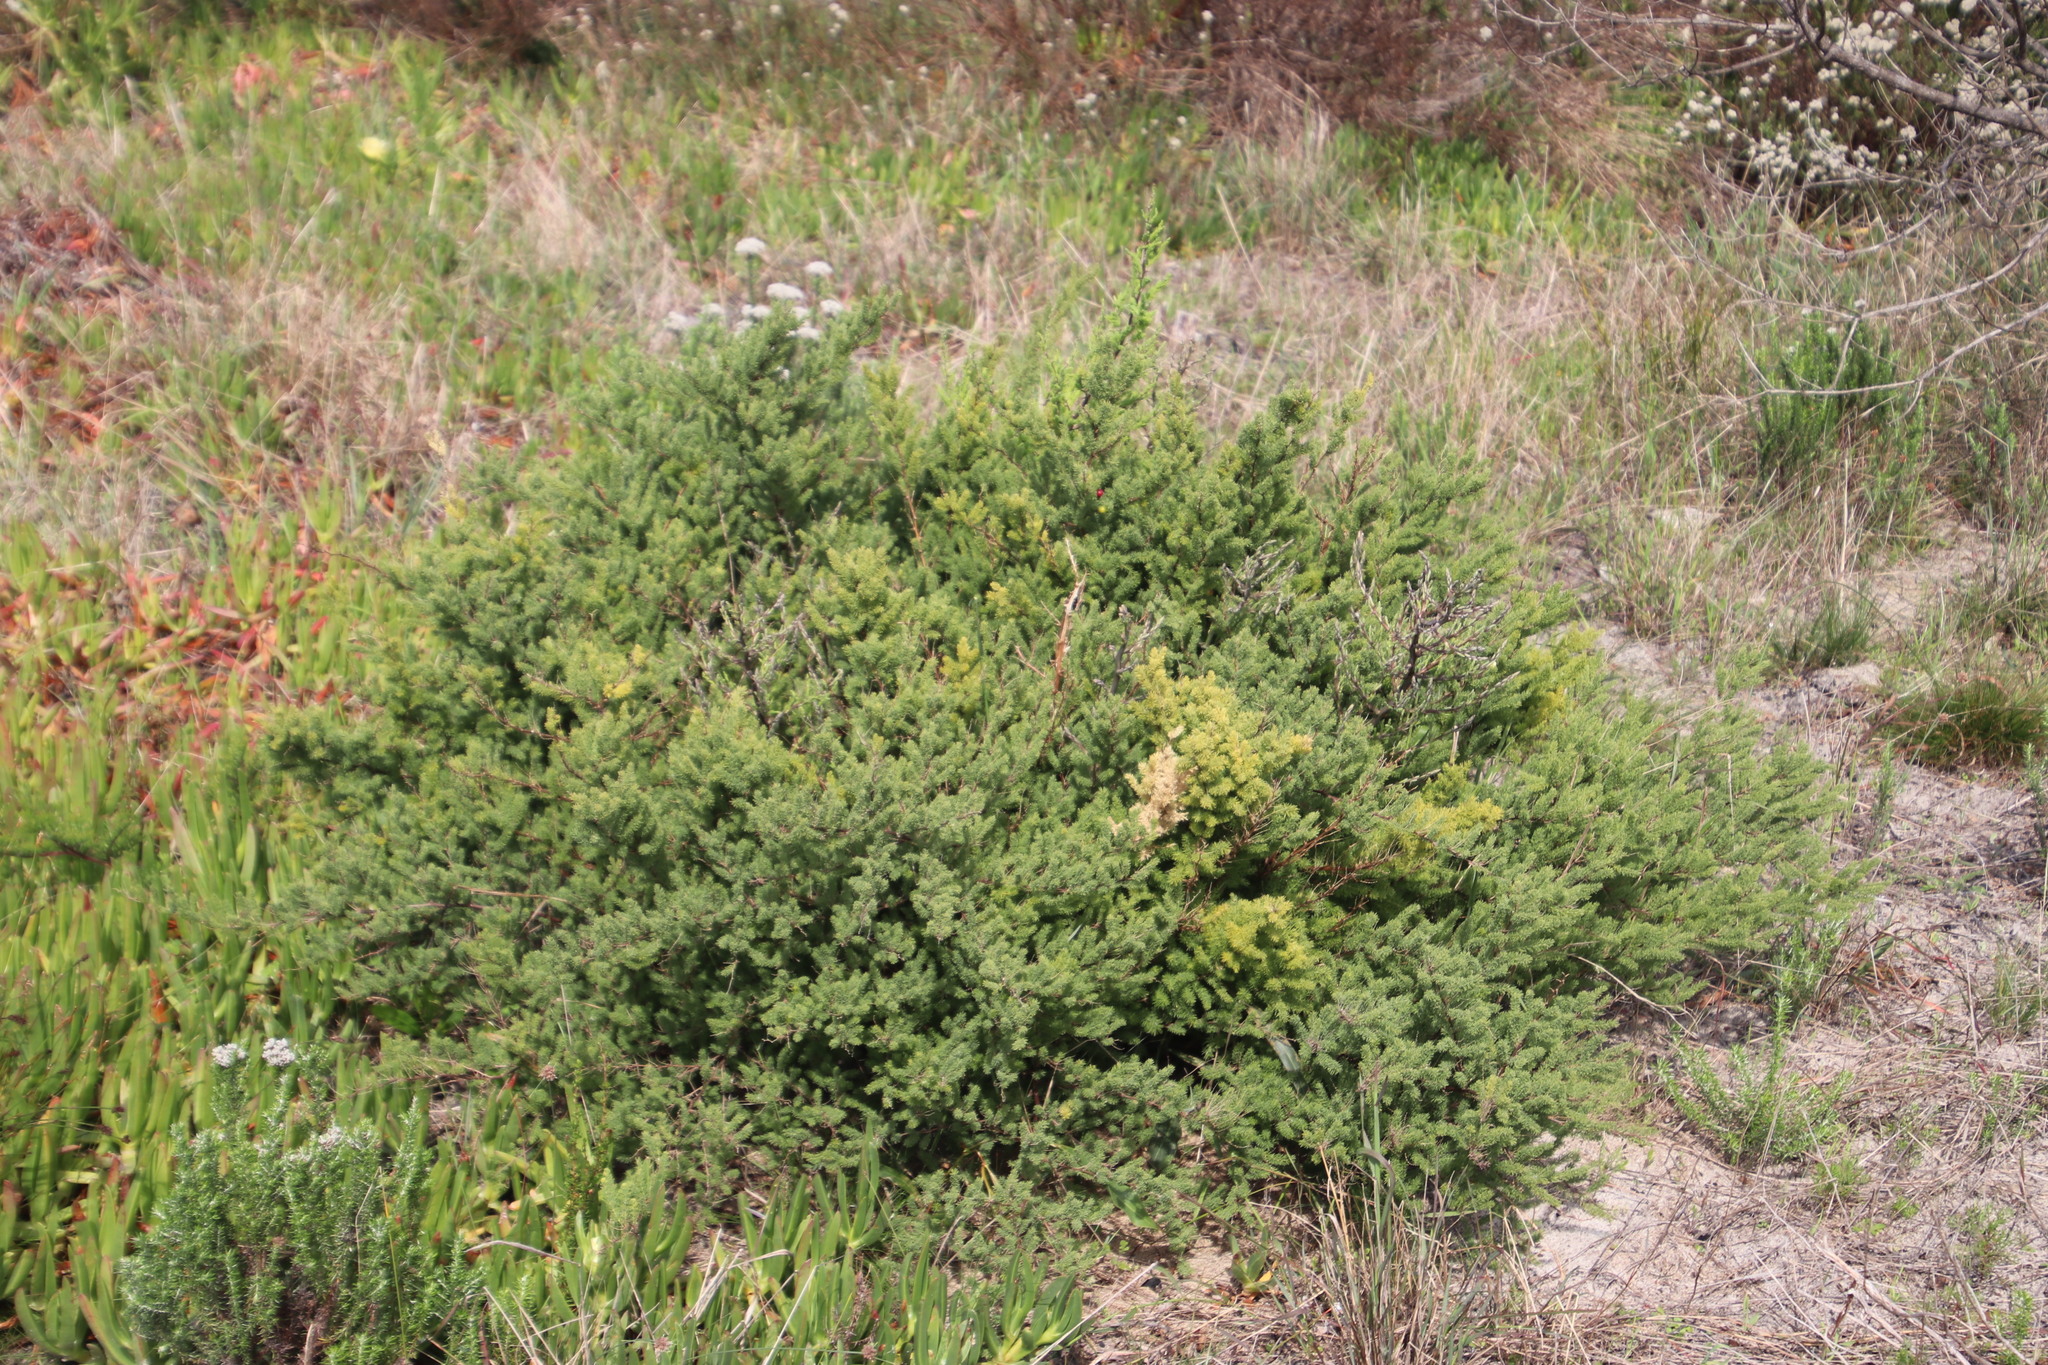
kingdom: Plantae
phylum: Tracheophyta
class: Liliopsida
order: Asparagales
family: Asparagaceae
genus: Asparagus
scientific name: Asparagus rubicundus
